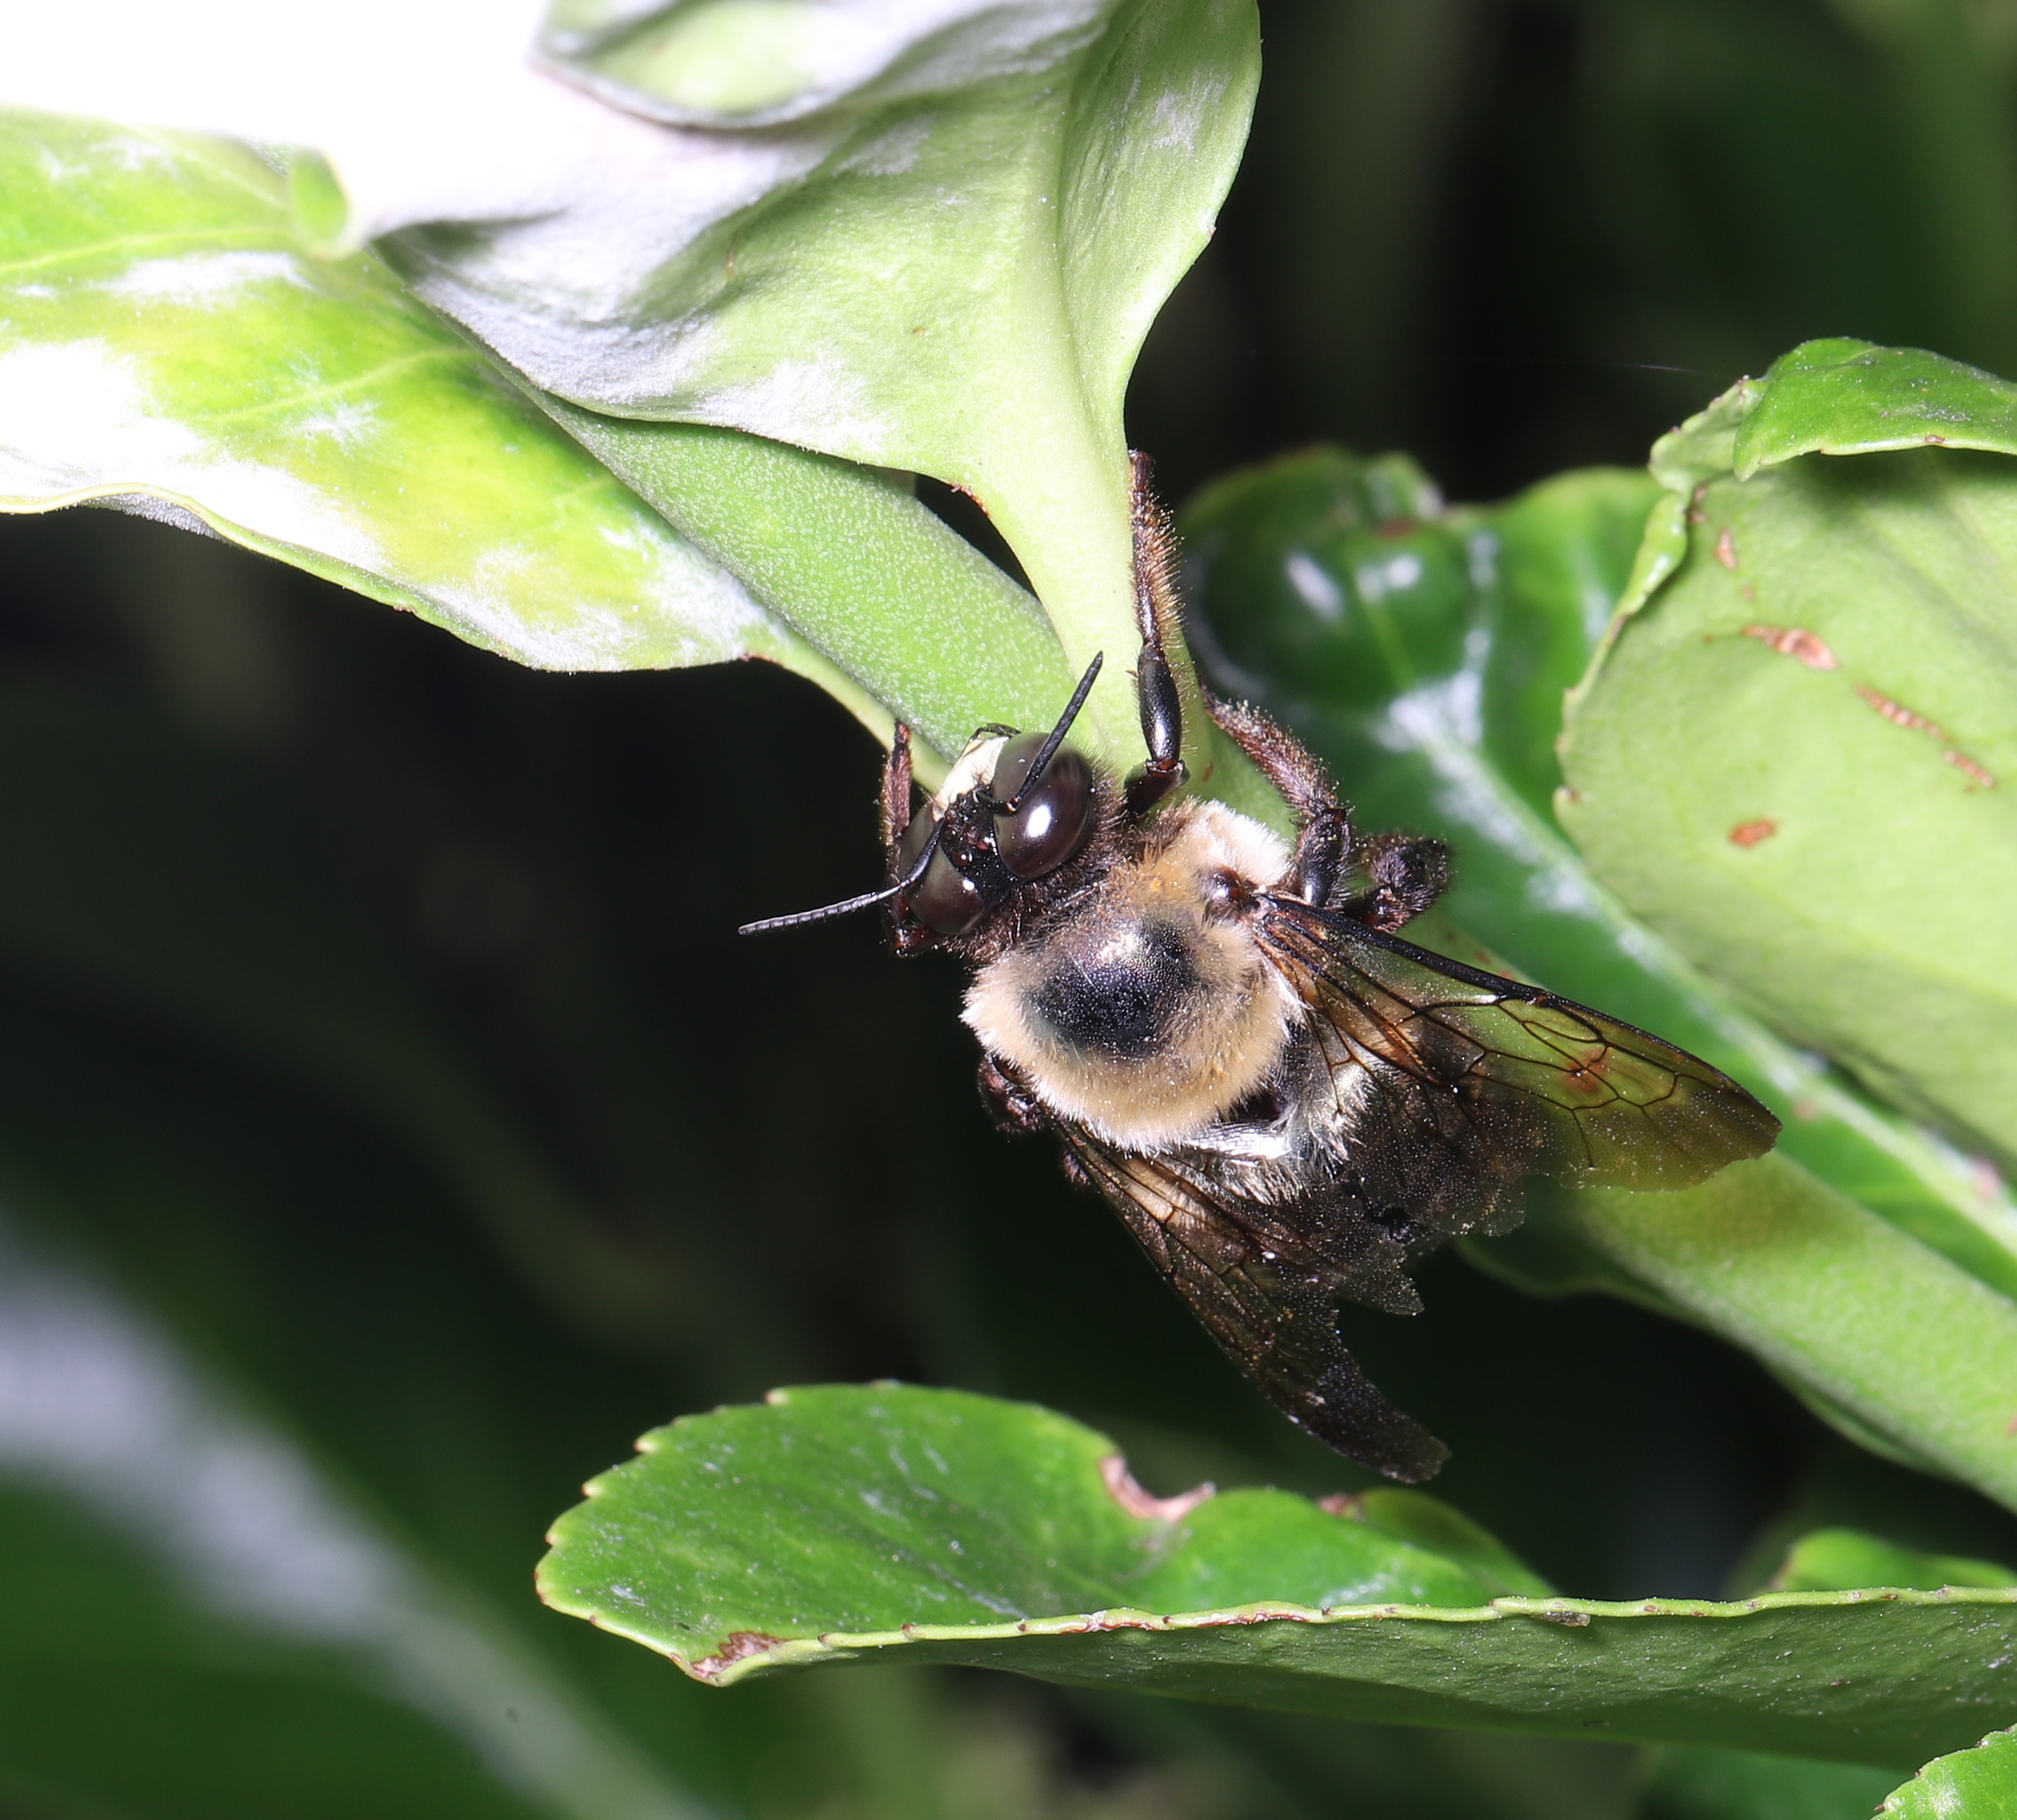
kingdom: Animalia
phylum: Arthropoda
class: Insecta
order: Hymenoptera
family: Apidae
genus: Xylocopa
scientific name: Xylocopa virginica
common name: Carpenter bee
